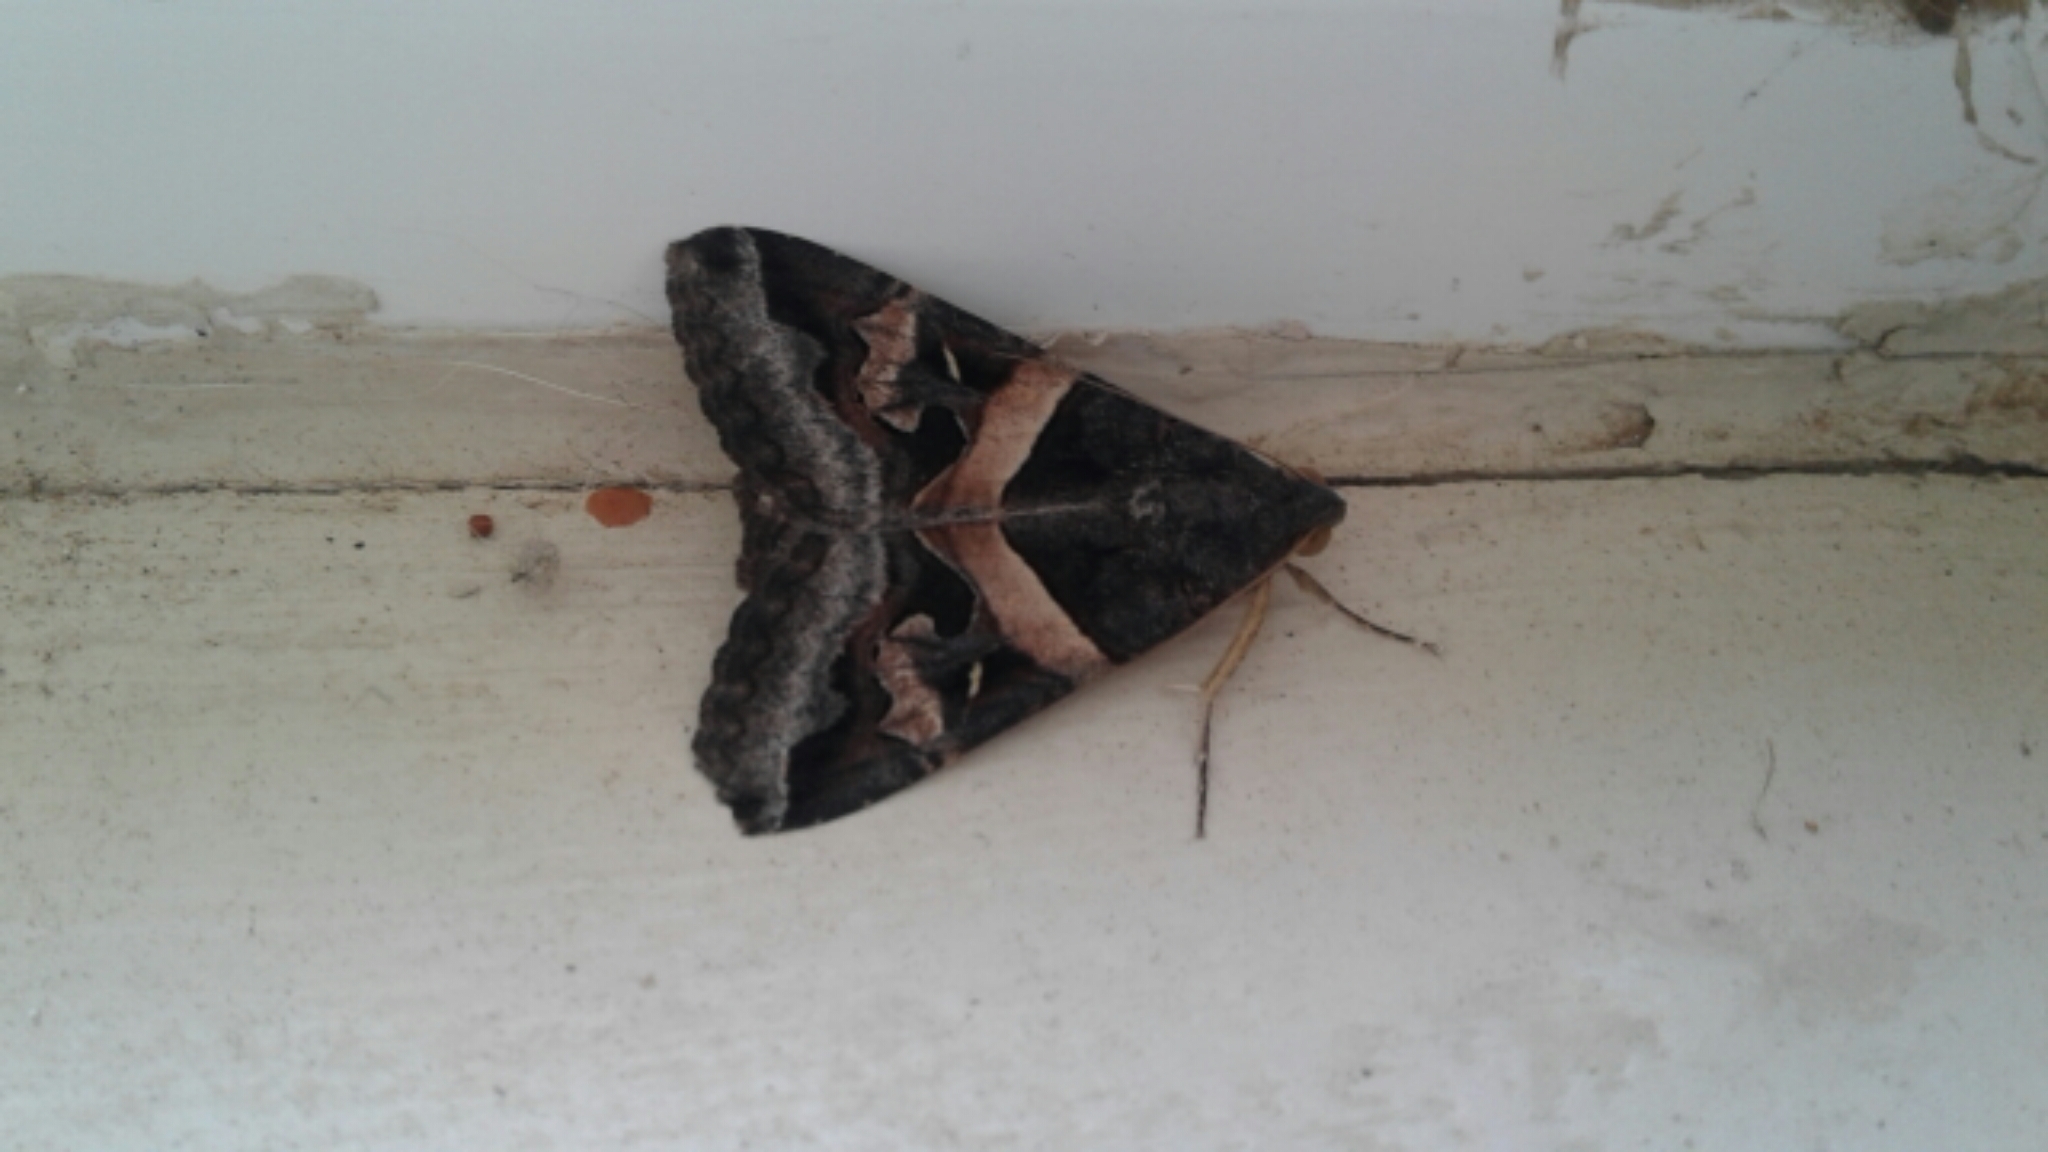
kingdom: Animalia
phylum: Arthropoda
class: Insecta
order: Lepidoptera
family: Erebidae
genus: Melipotis
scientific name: Melipotis indomita
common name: Moth
